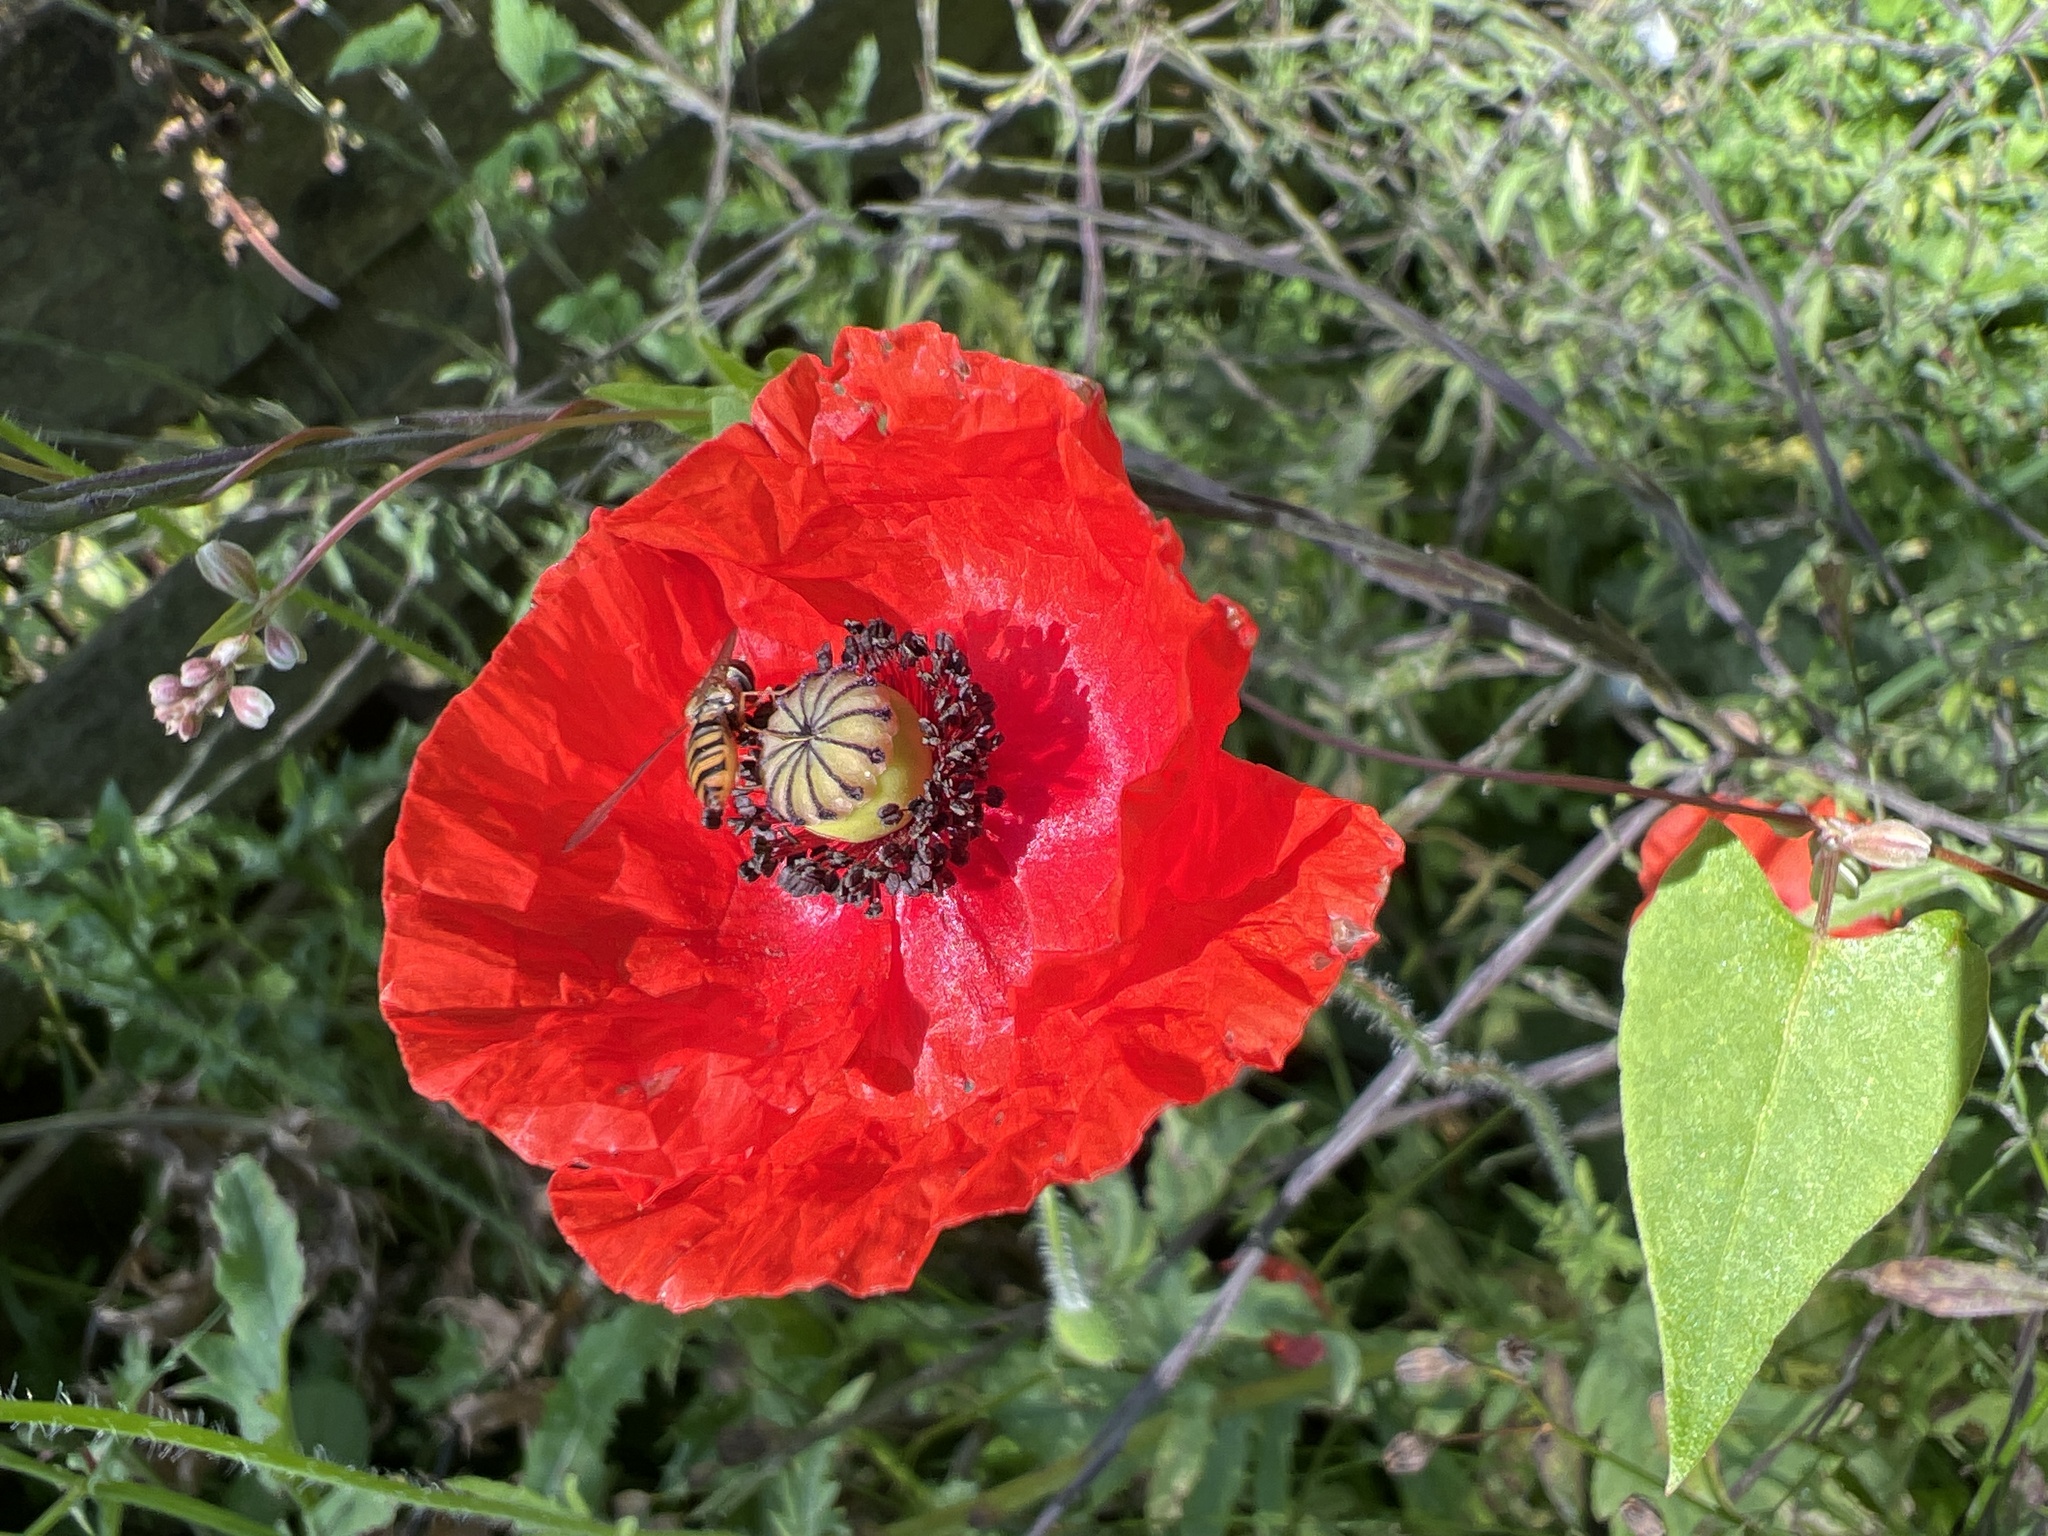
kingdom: Plantae
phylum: Tracheophyta
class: Magnoliopsida
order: Ranunculales
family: Papaveraceae
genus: Papaver
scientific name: Papaver rhoeas
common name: Corn poppy
